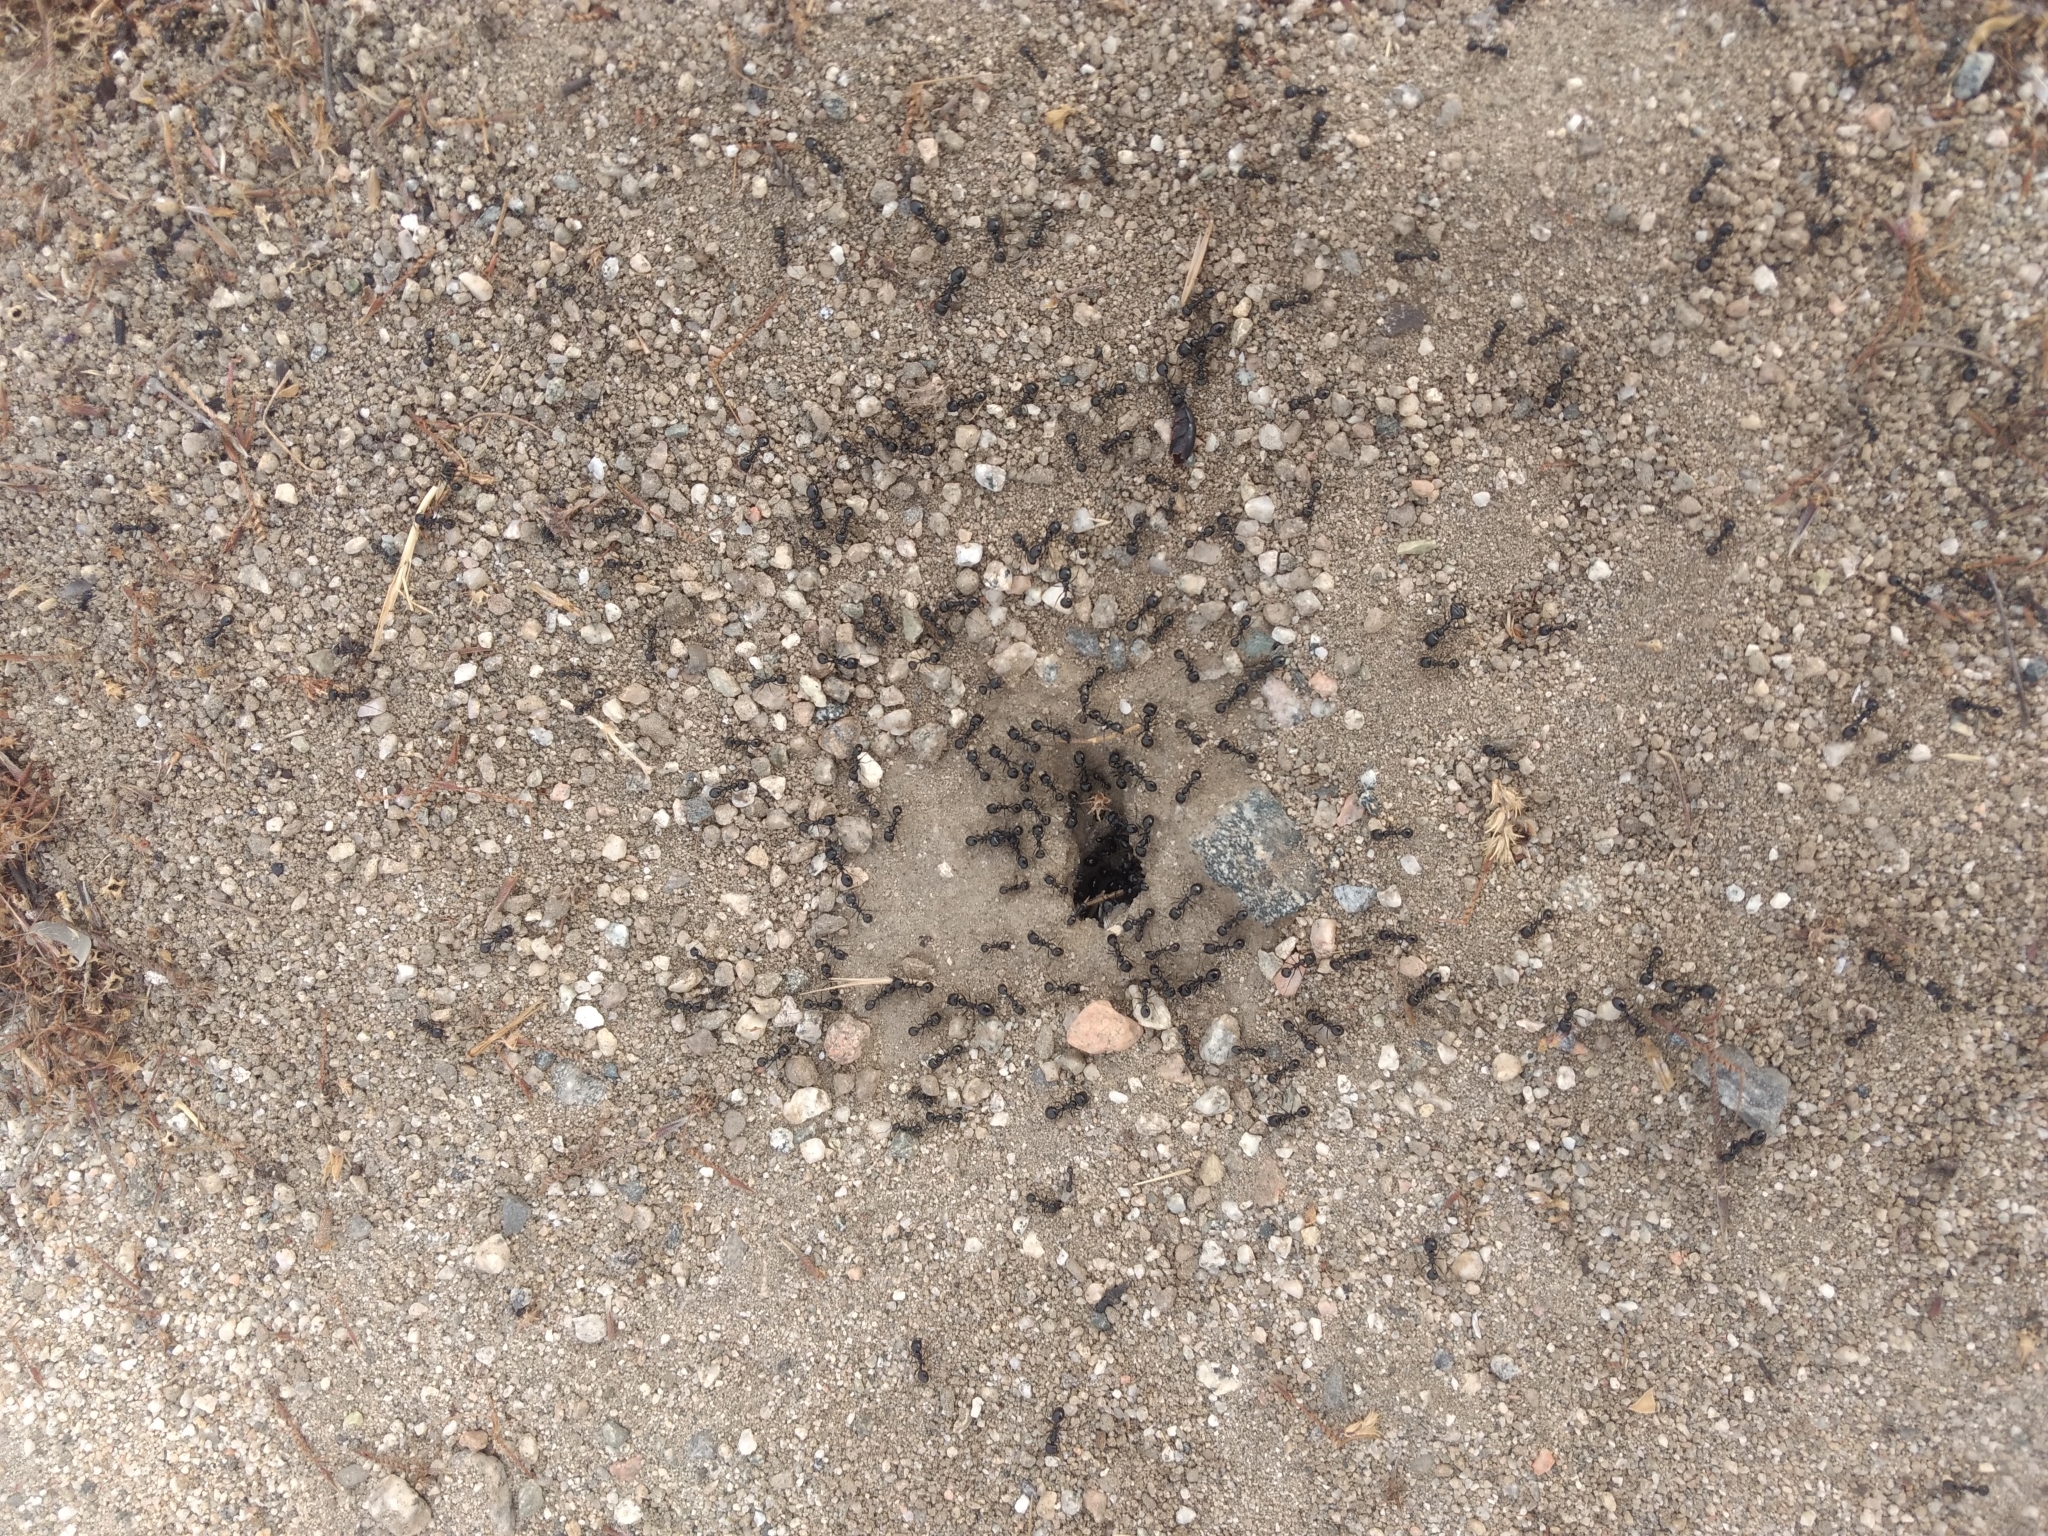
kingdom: Animalia
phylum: Arthropoda
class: Insecta
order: Hymenoptera
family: Formicidae
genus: Messor
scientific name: Messor pergandei
